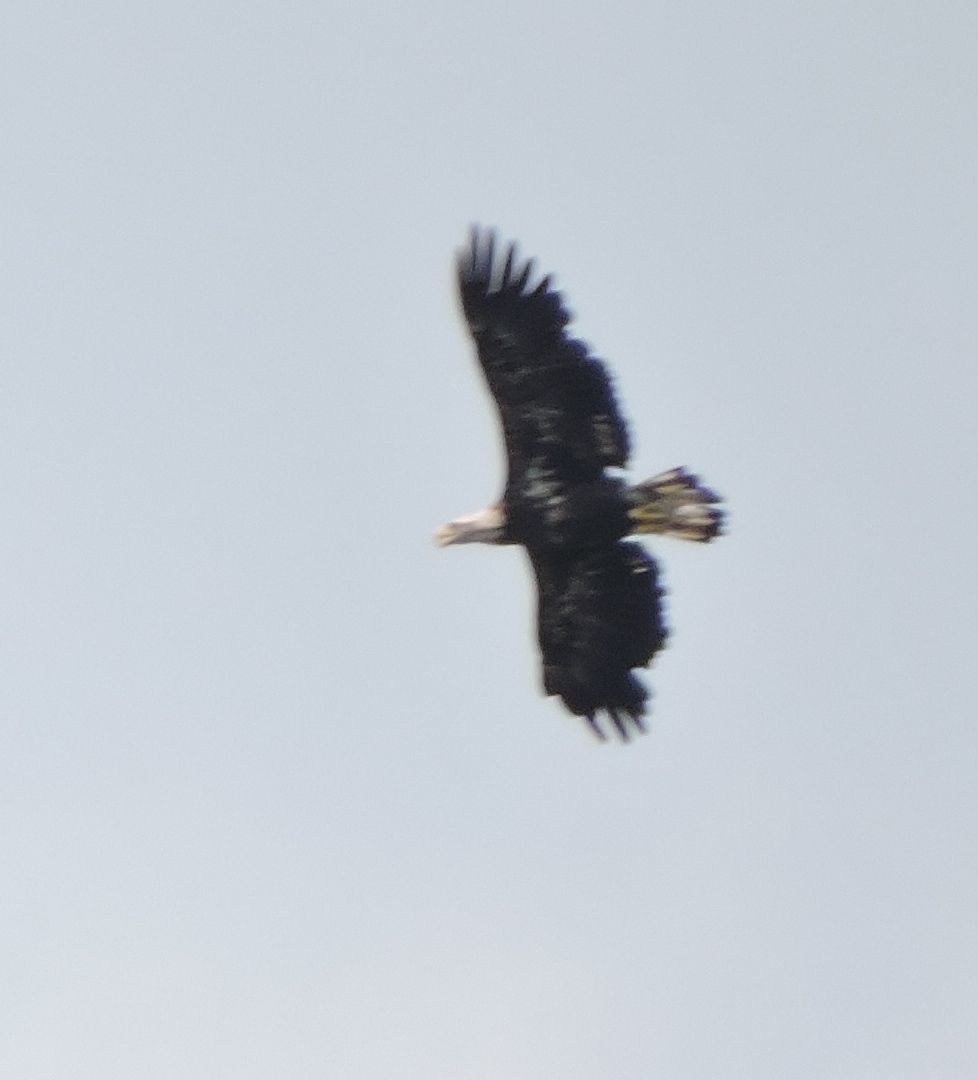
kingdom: Animalia
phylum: Chordata
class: Aves
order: Accipitriformes
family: Accipitridae
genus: Haliaeetus
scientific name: Haliaeetus leucocephalus
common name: Bald eagle
